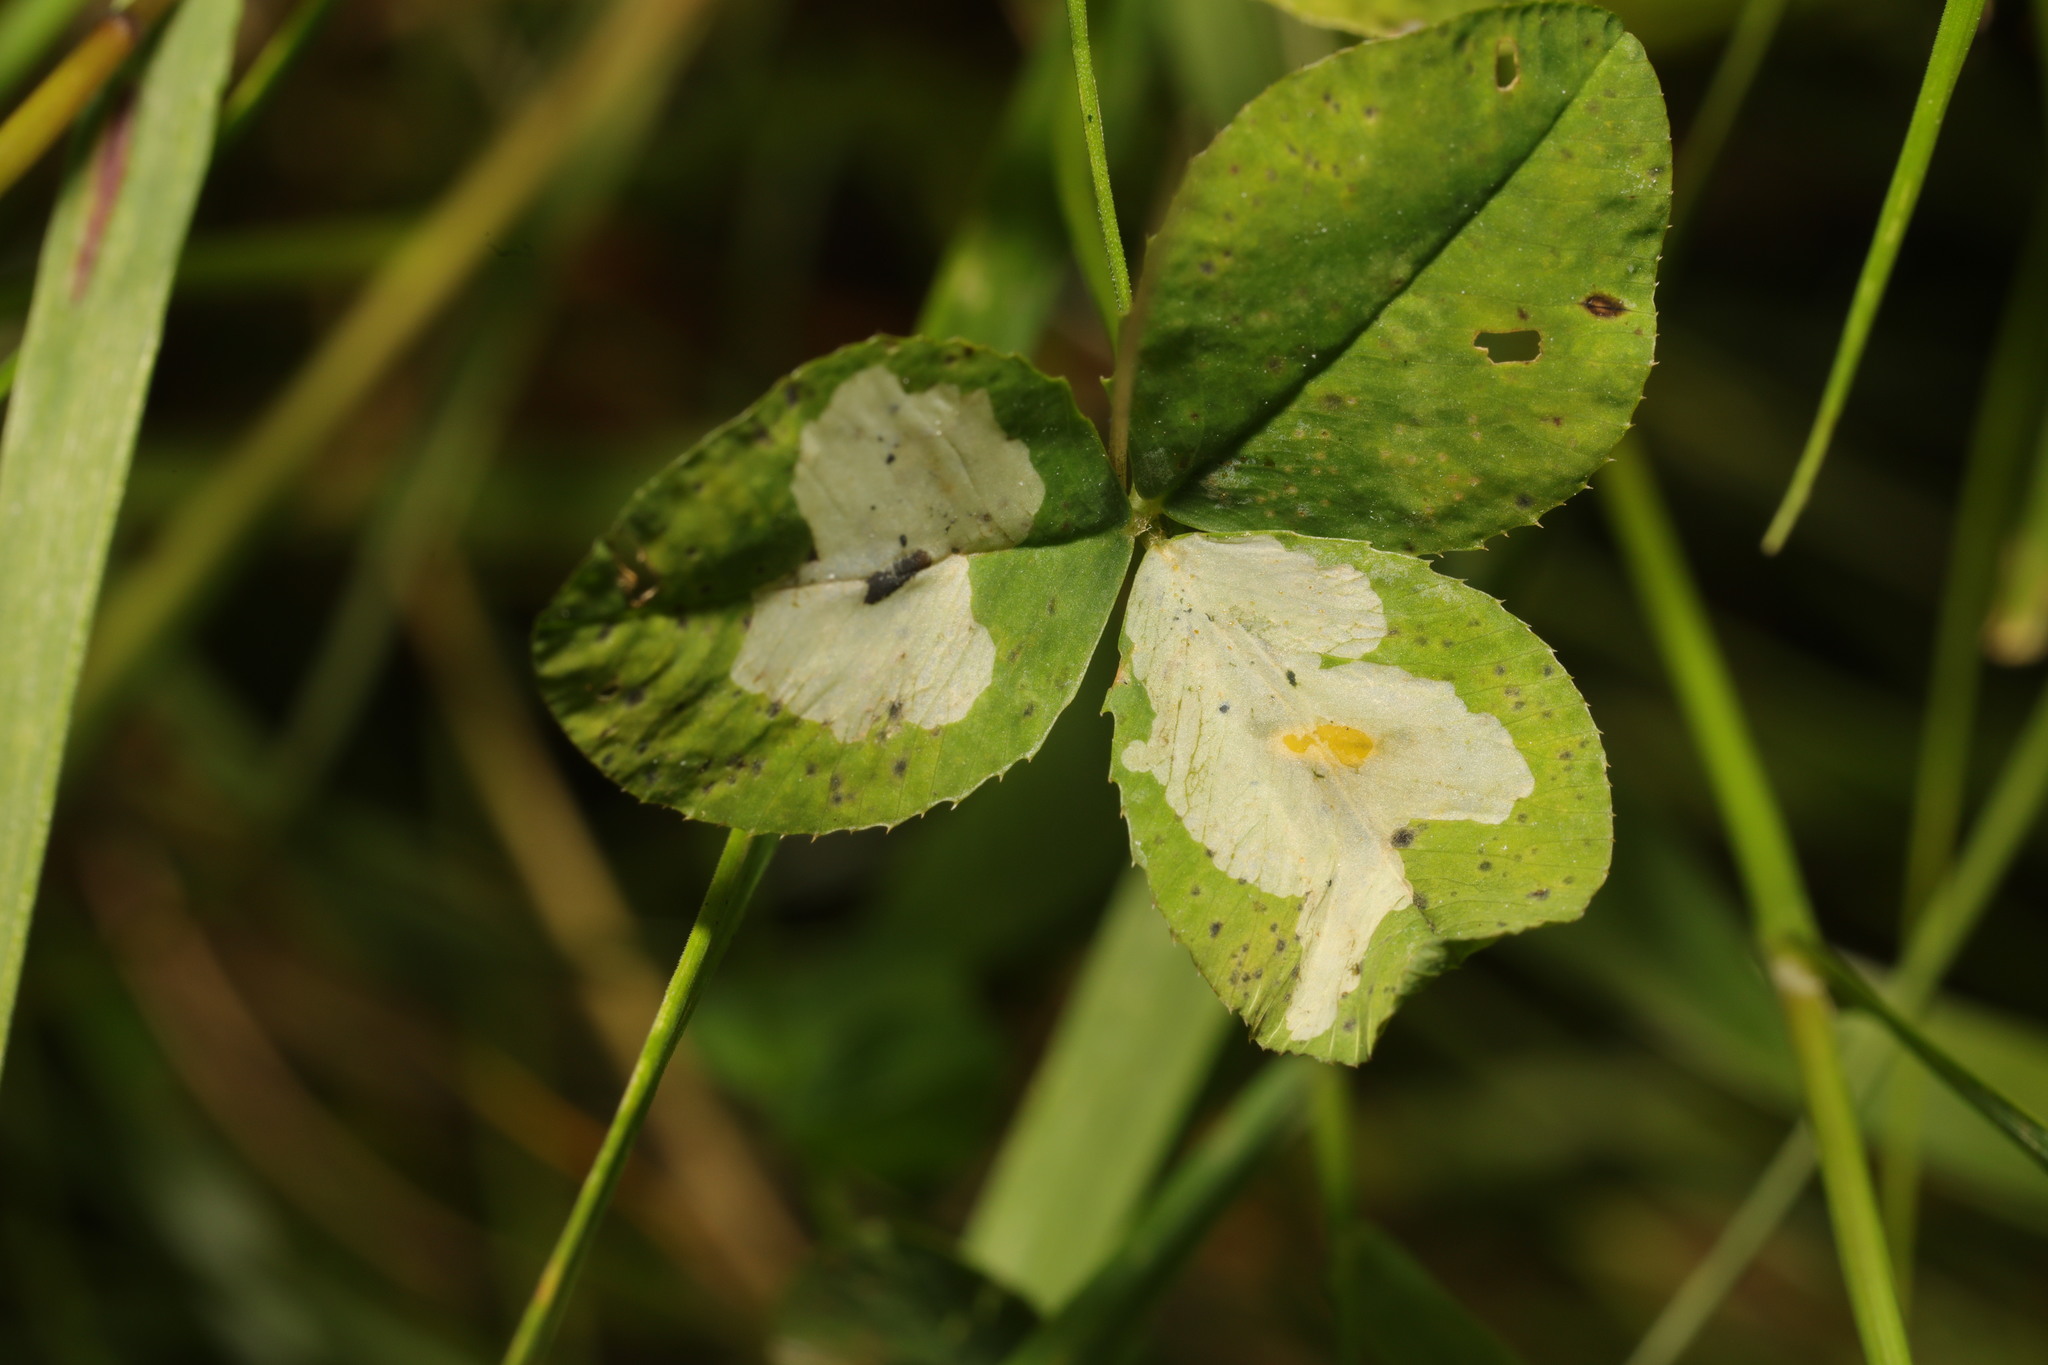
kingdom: Animalia
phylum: Arthropoda
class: Insecta
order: Diptera
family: Agromyzidae
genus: Agromyza
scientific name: Agromyza nana
